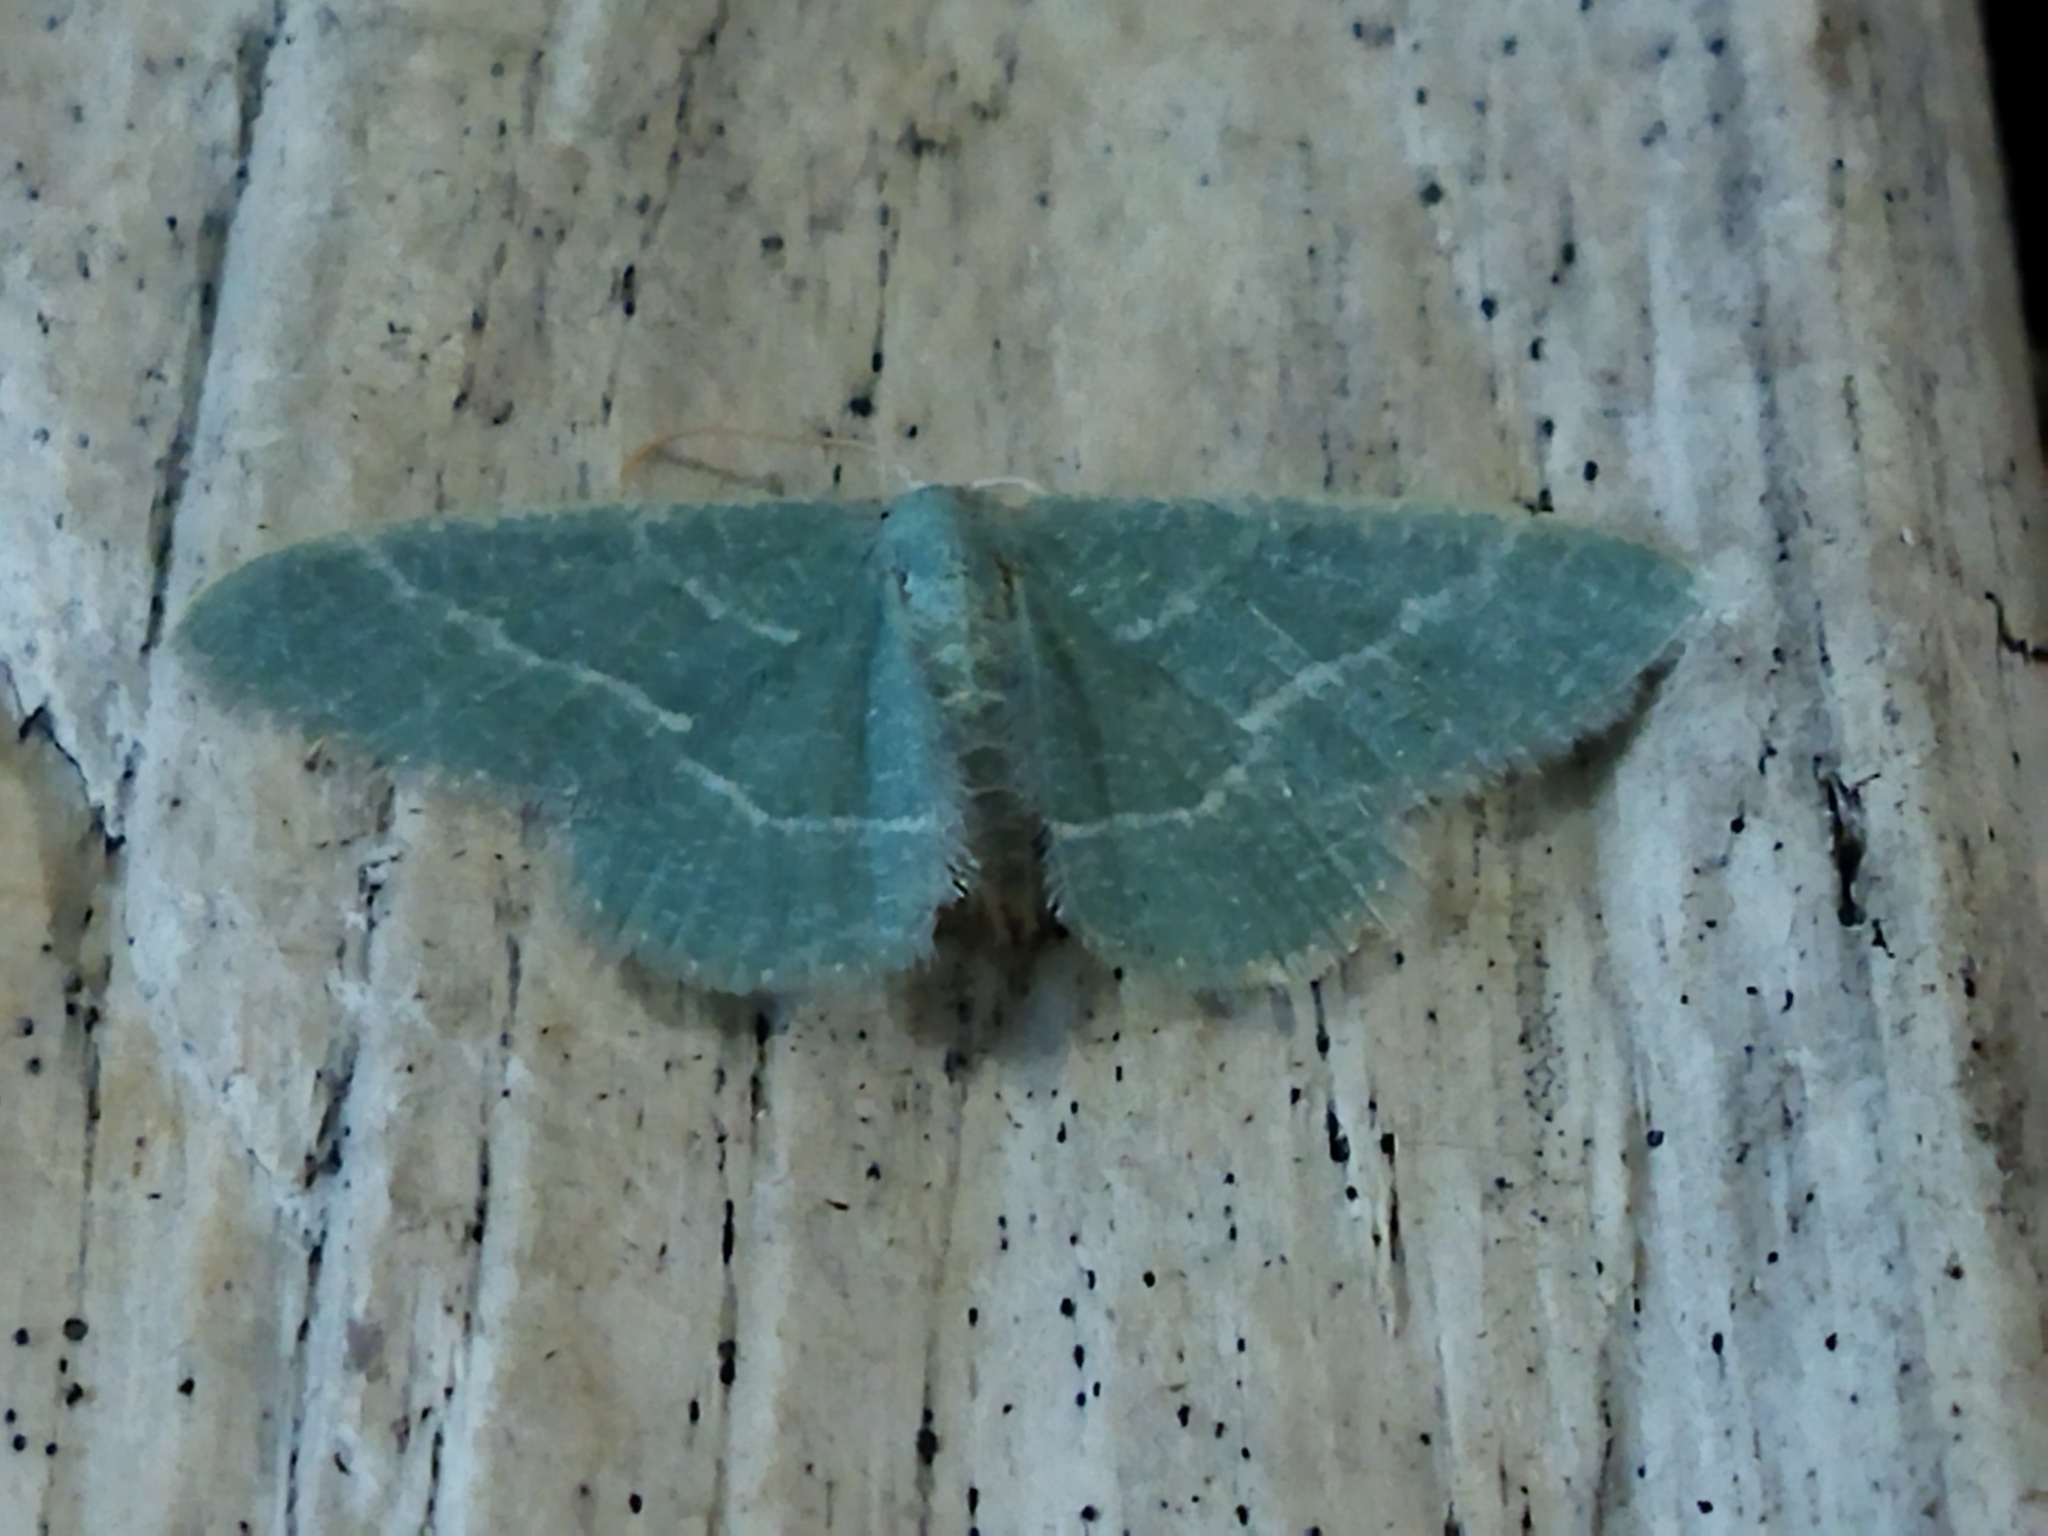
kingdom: Animalia
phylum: Arthropoda
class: Insecta
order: Lepidoptera
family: Geometridae
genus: Chlorissa
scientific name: Chlorissa etruscaria
